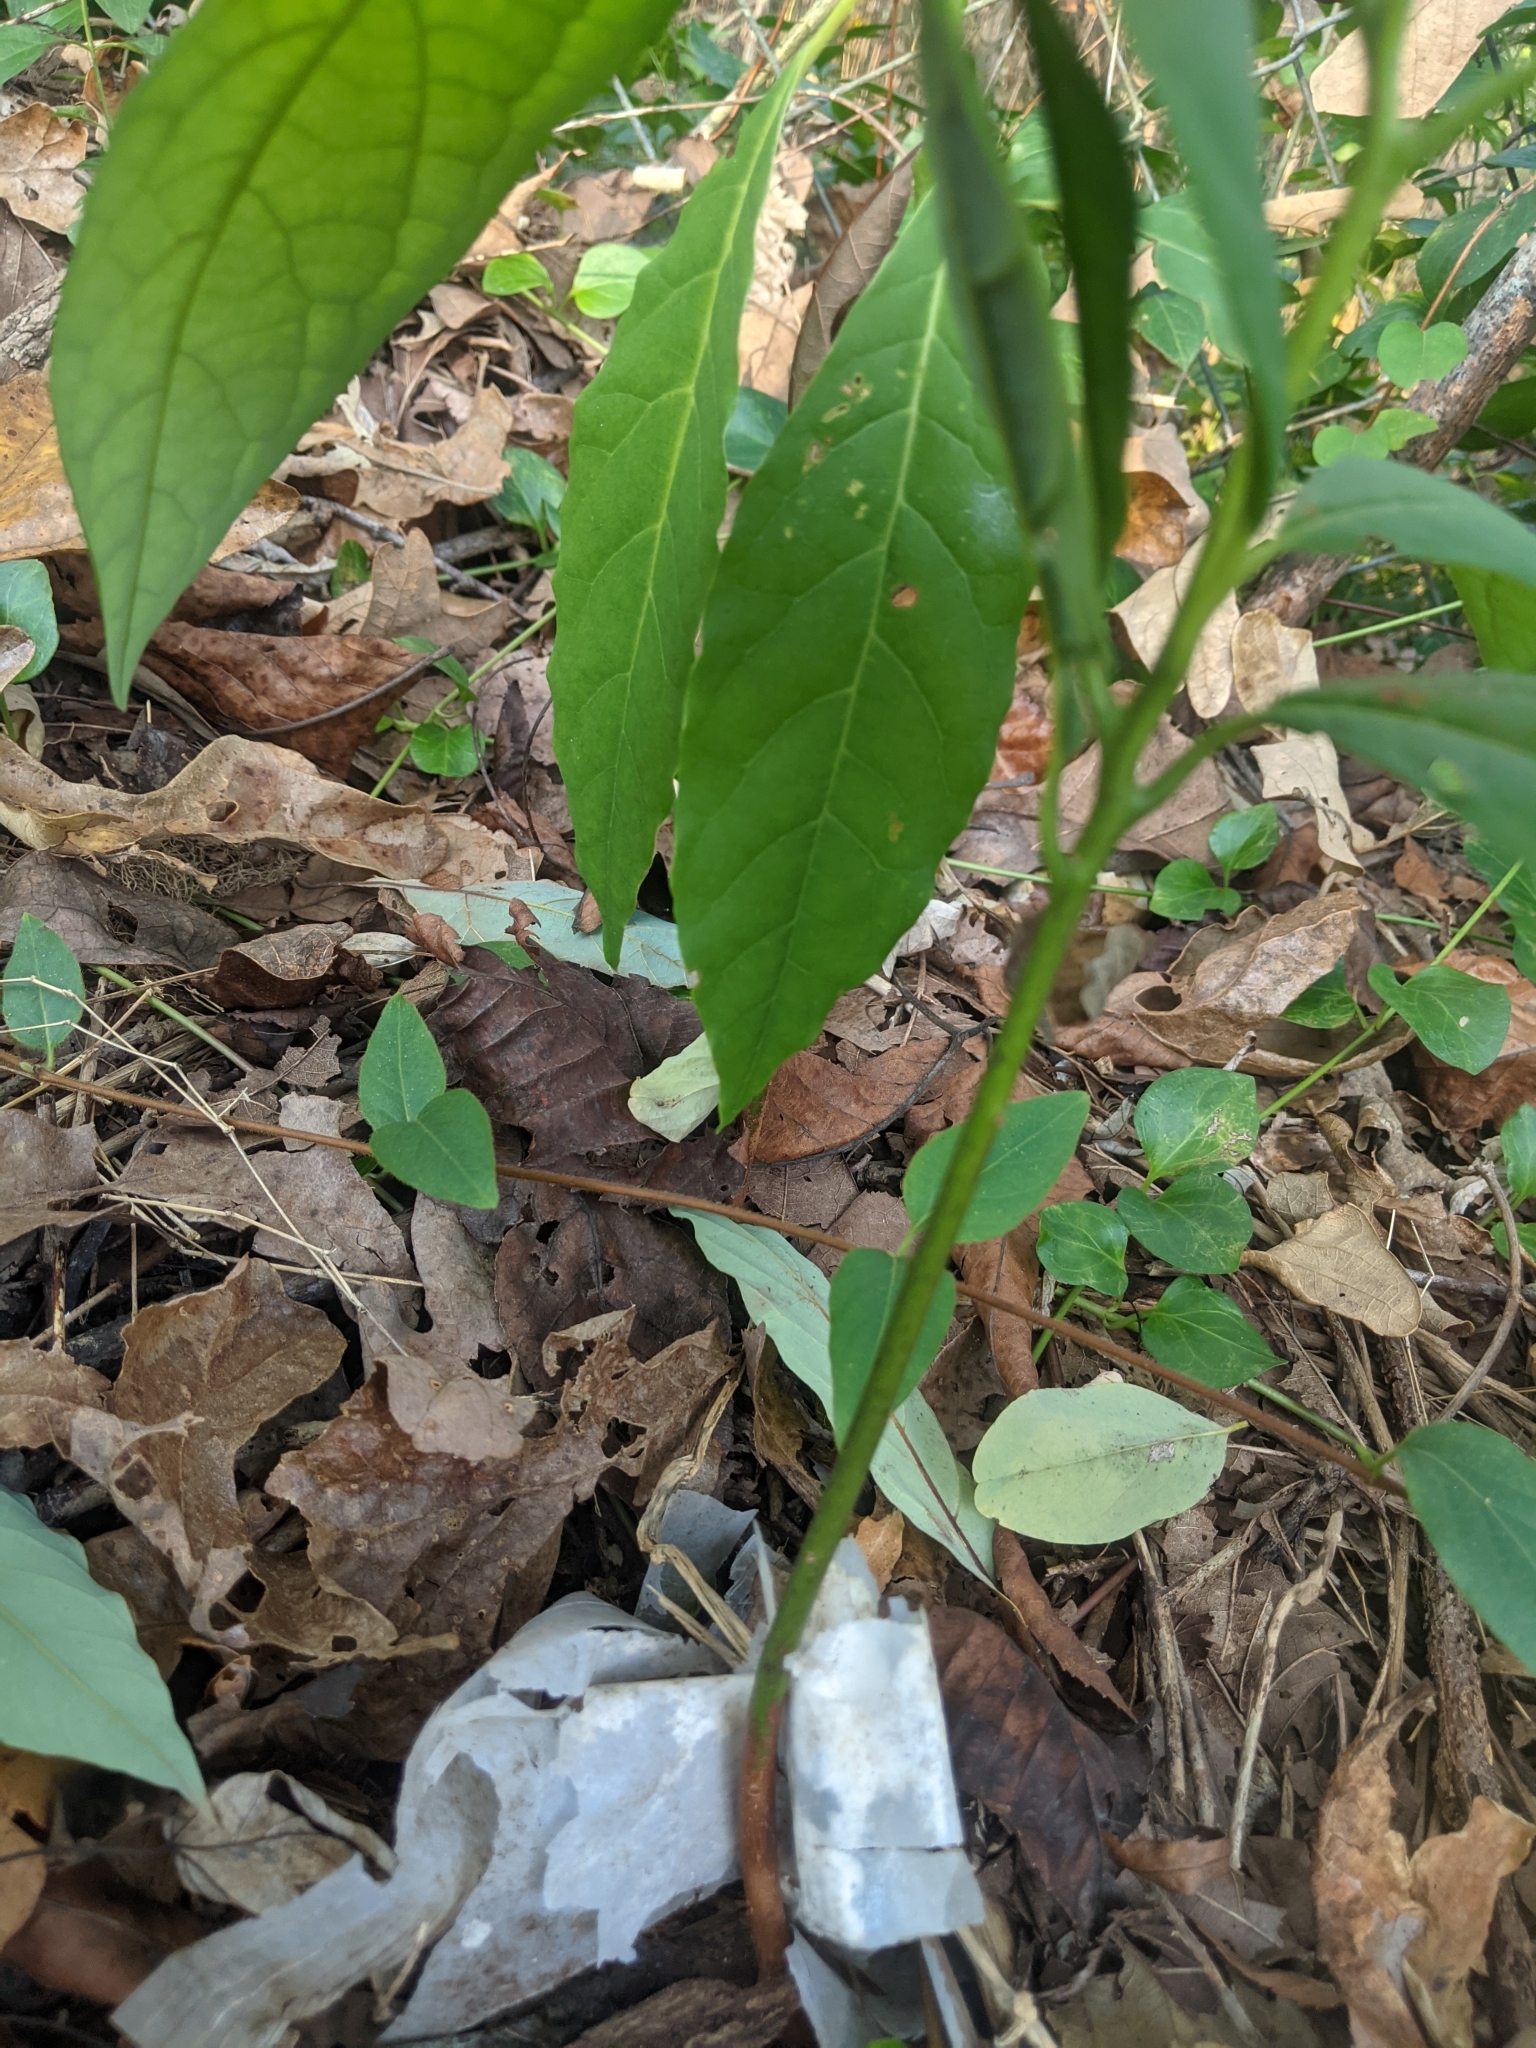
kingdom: Plantae
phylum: Tracheophyta
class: Magnoliopsida
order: Laurales
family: Lauraceae
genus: Persea
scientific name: Persea americana
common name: Avocado
